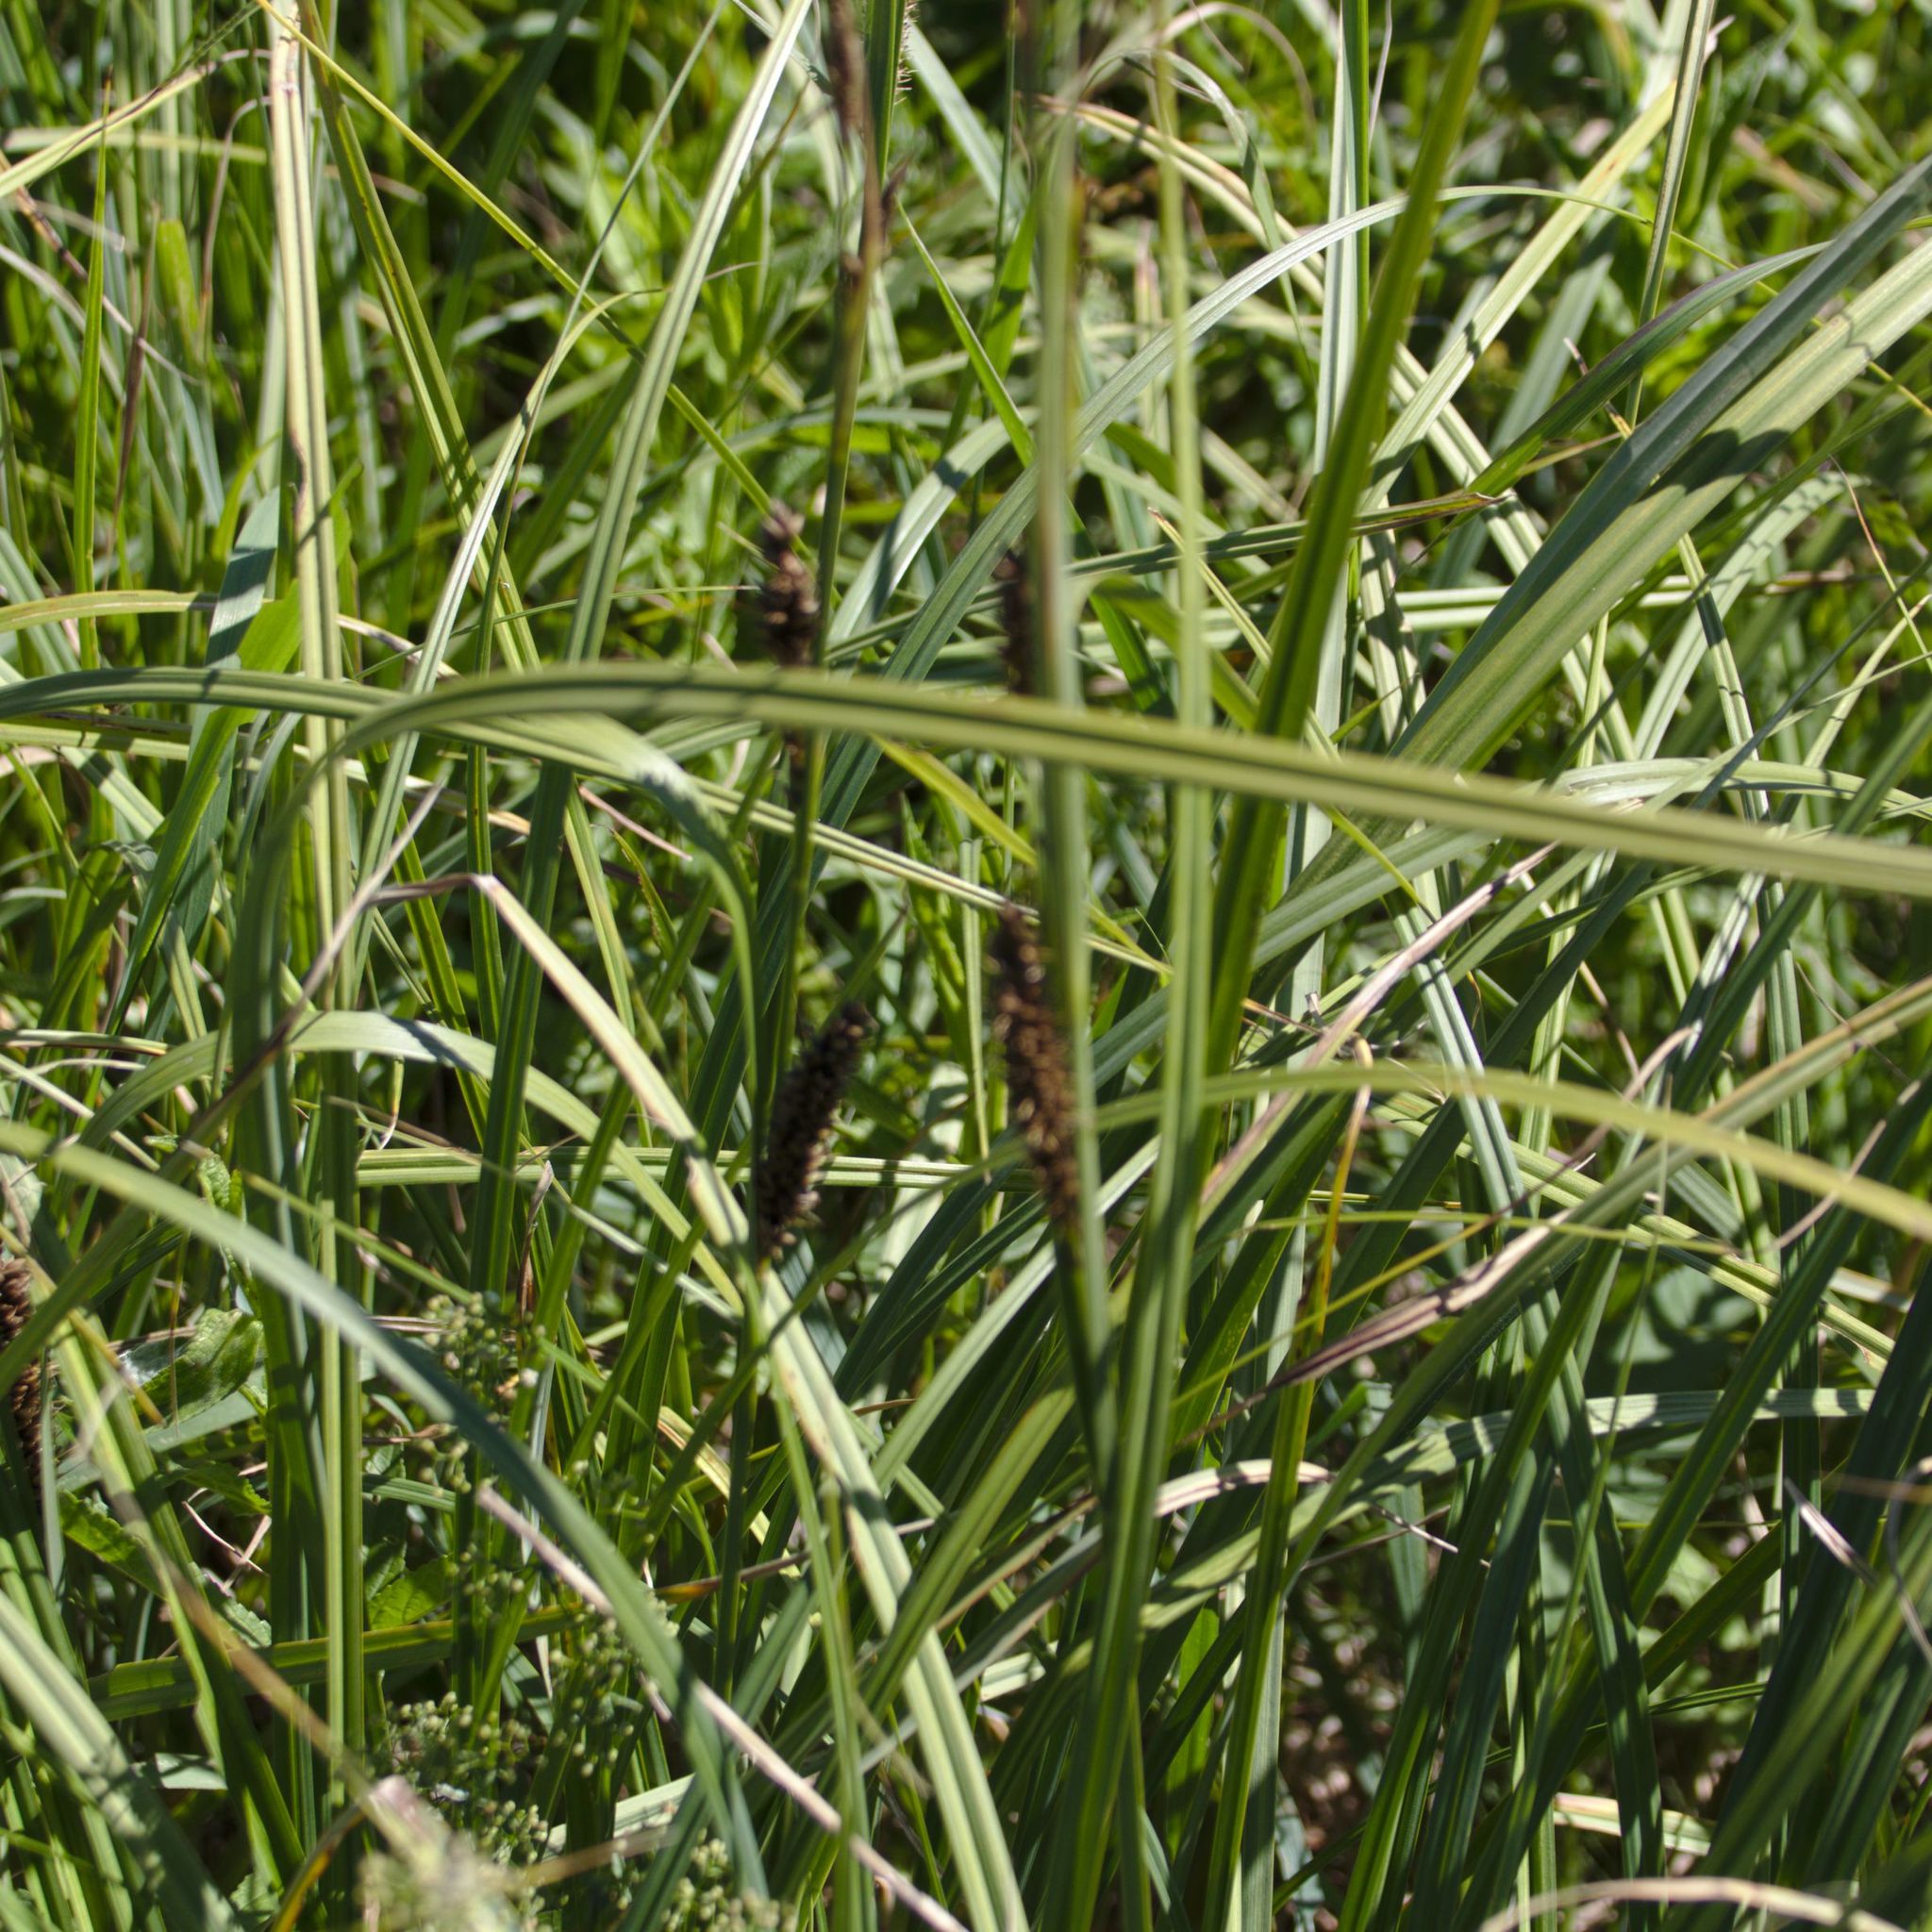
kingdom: Plantae
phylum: Tracheophyta
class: Liliopsida
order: Poales
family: Cyperaceae
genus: Carex
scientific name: Carex riparia
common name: Greater pond-sedge
